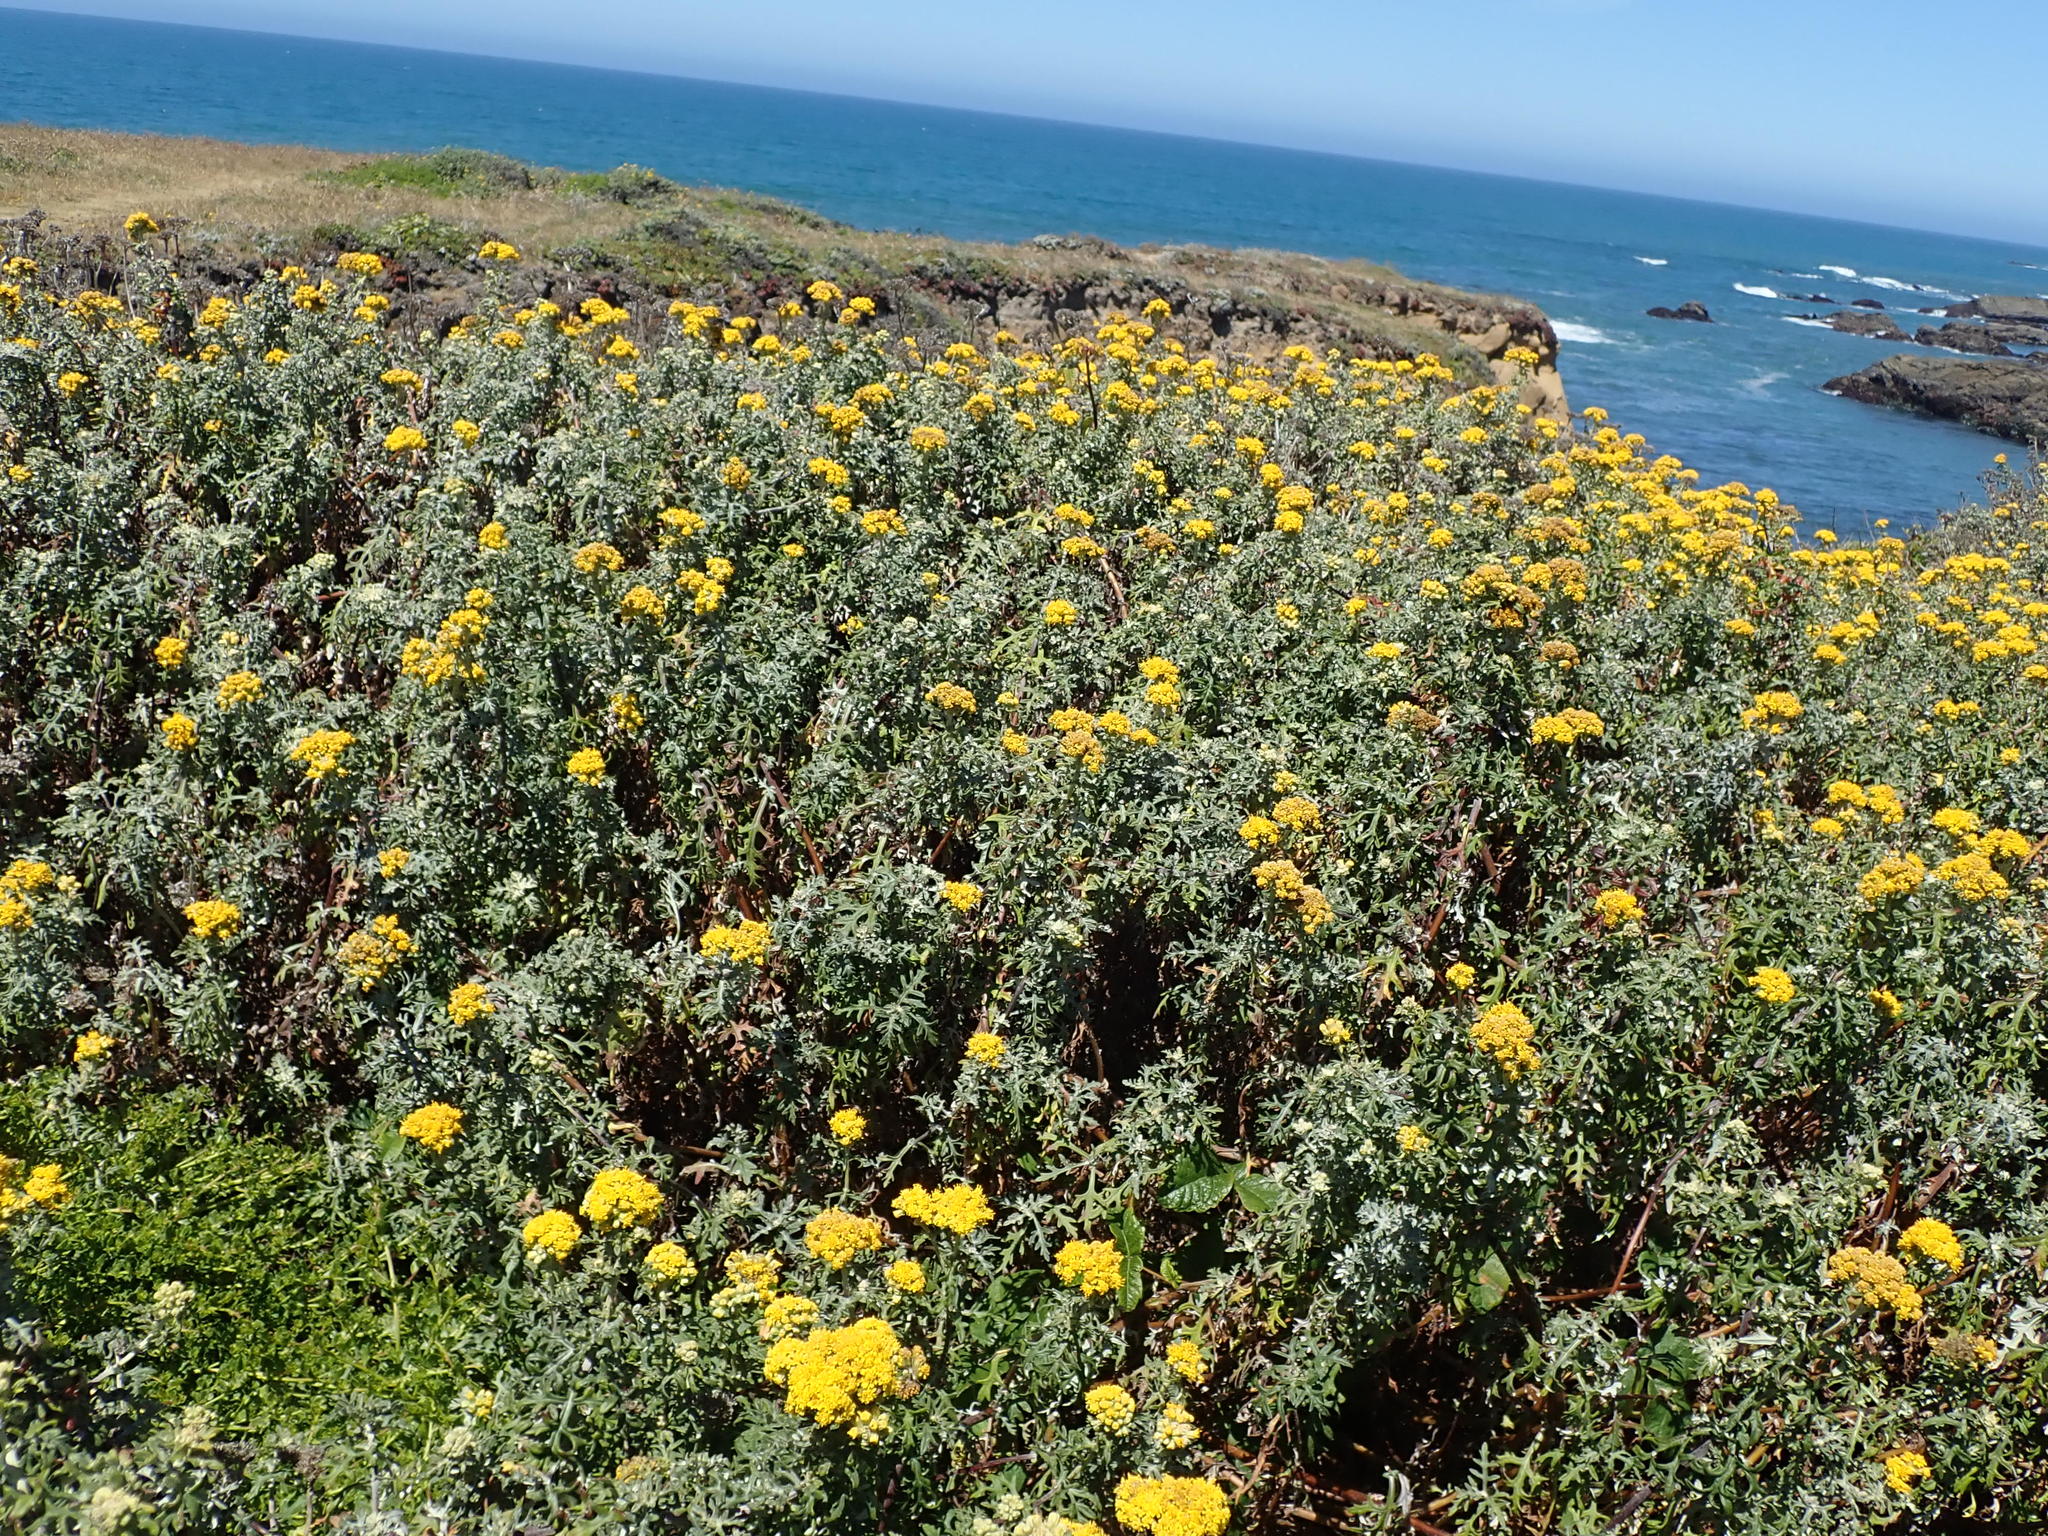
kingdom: Plantae
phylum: Tracheophyta
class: Magnoliopsida
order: Asterales
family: Asteraceae
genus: Eriophyllum
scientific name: Eriophyllum staechadifolium
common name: Lizardtail
